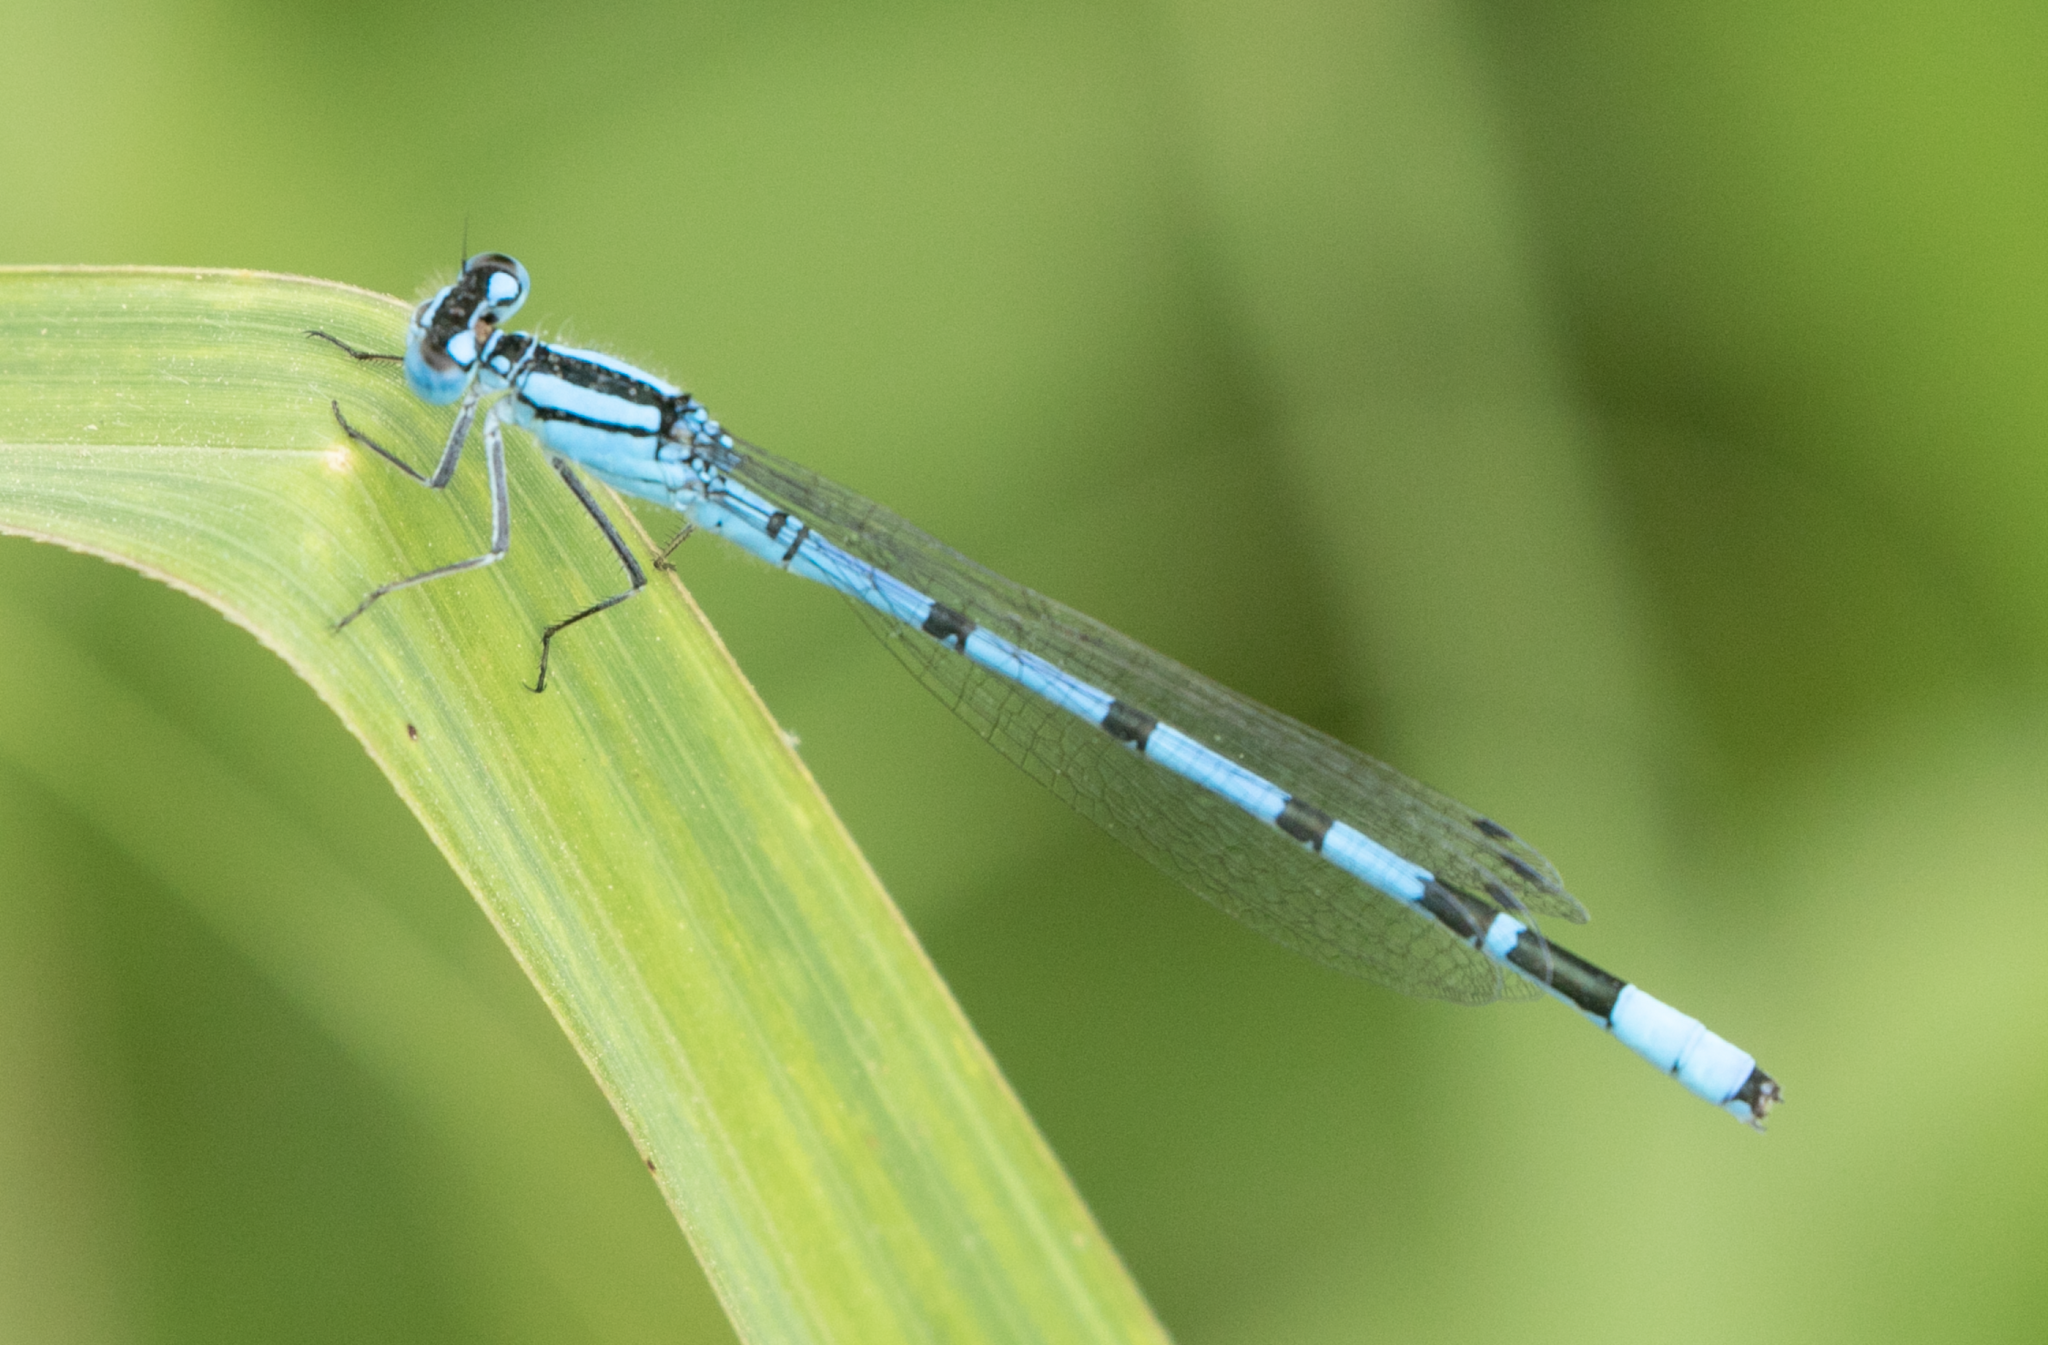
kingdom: Animalia
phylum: Arthropoda
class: Insecta
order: Odonata
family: Coenagrionidae
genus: Enallagma
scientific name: Enallagma cyathigerum
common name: Common blue damselfly
